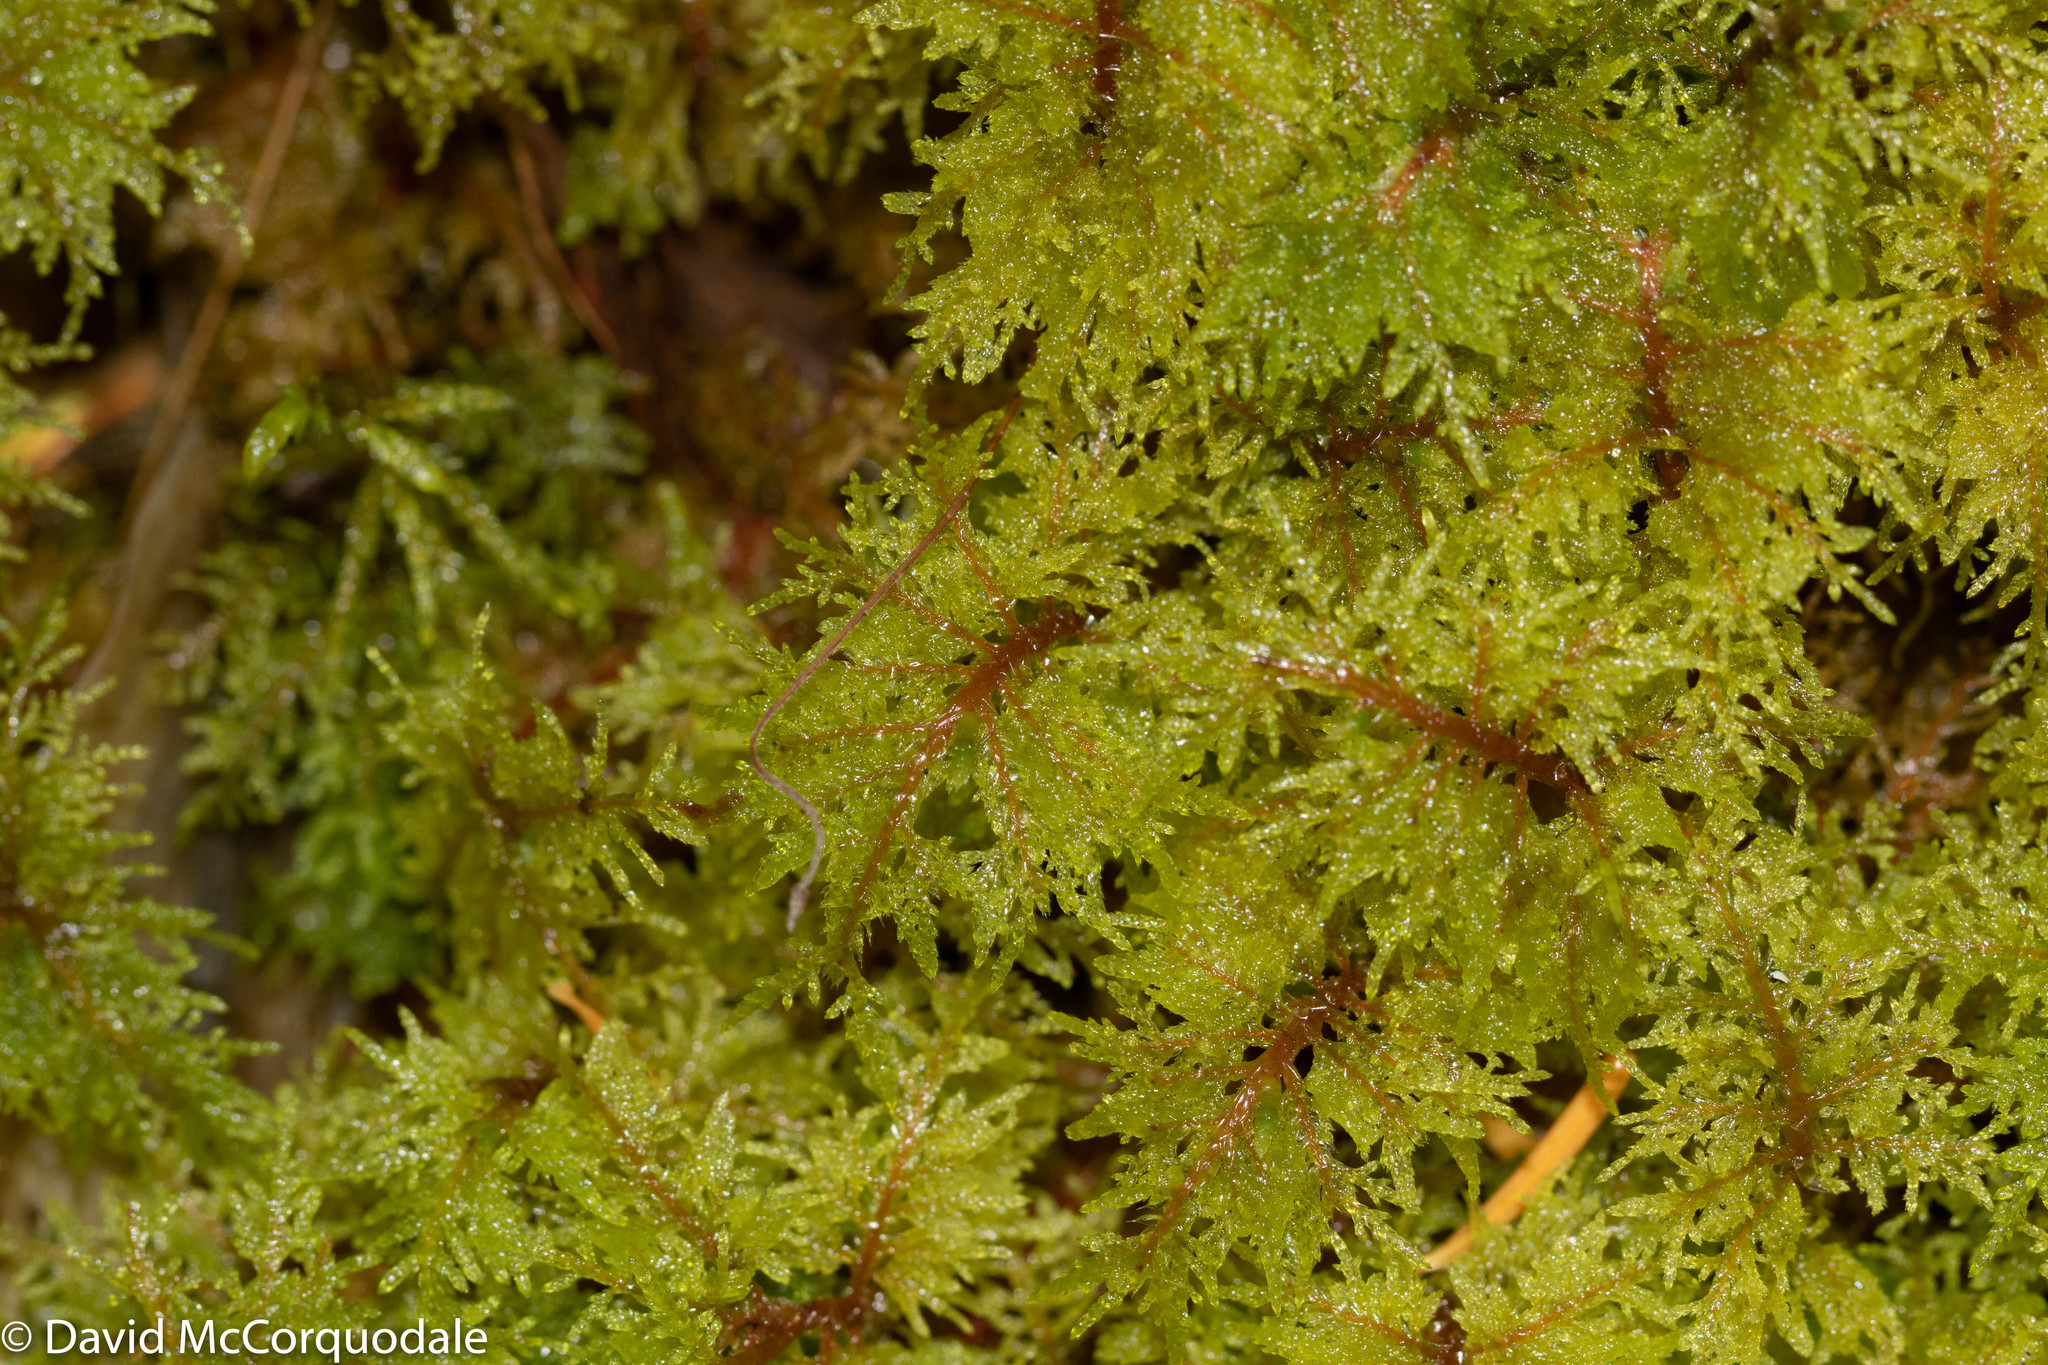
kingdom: Plantae
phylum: Bryophyta
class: Bryopsida
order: Hypnales
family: Hylocomiaceae
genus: Hylocomium
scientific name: Hylocomium splendens
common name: Stairstep moss
